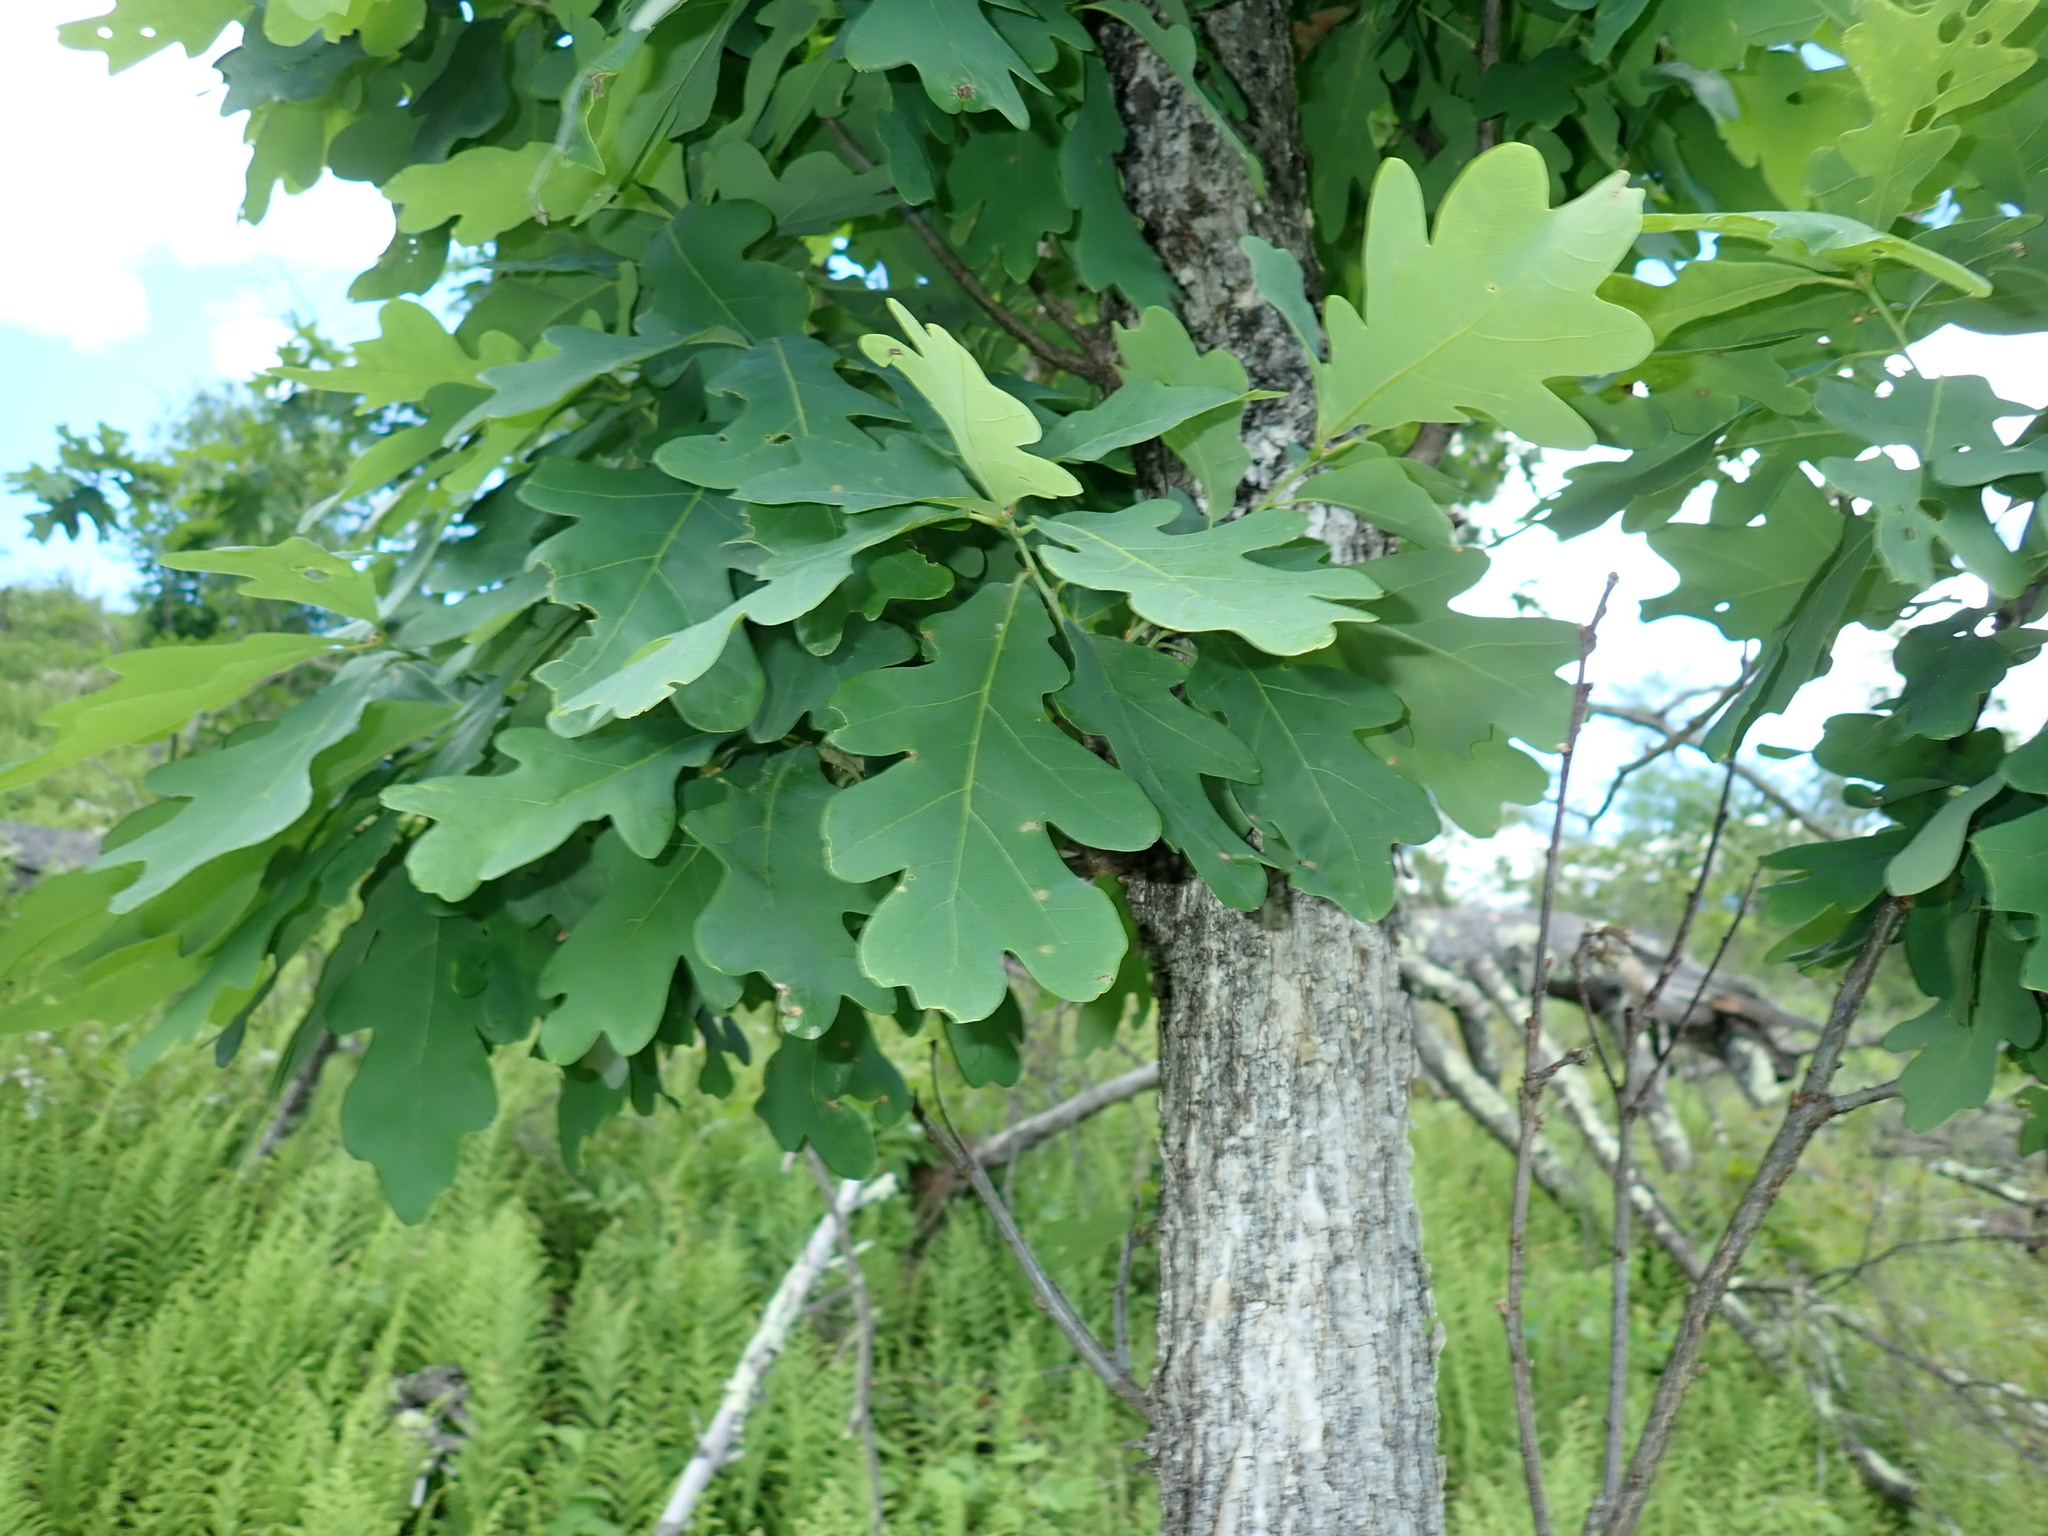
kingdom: Plantae
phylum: Tracheophyta
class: Magnoliopsida
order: Fagales
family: Fagaceae
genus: Quercus
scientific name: Quercus alba
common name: White oak
